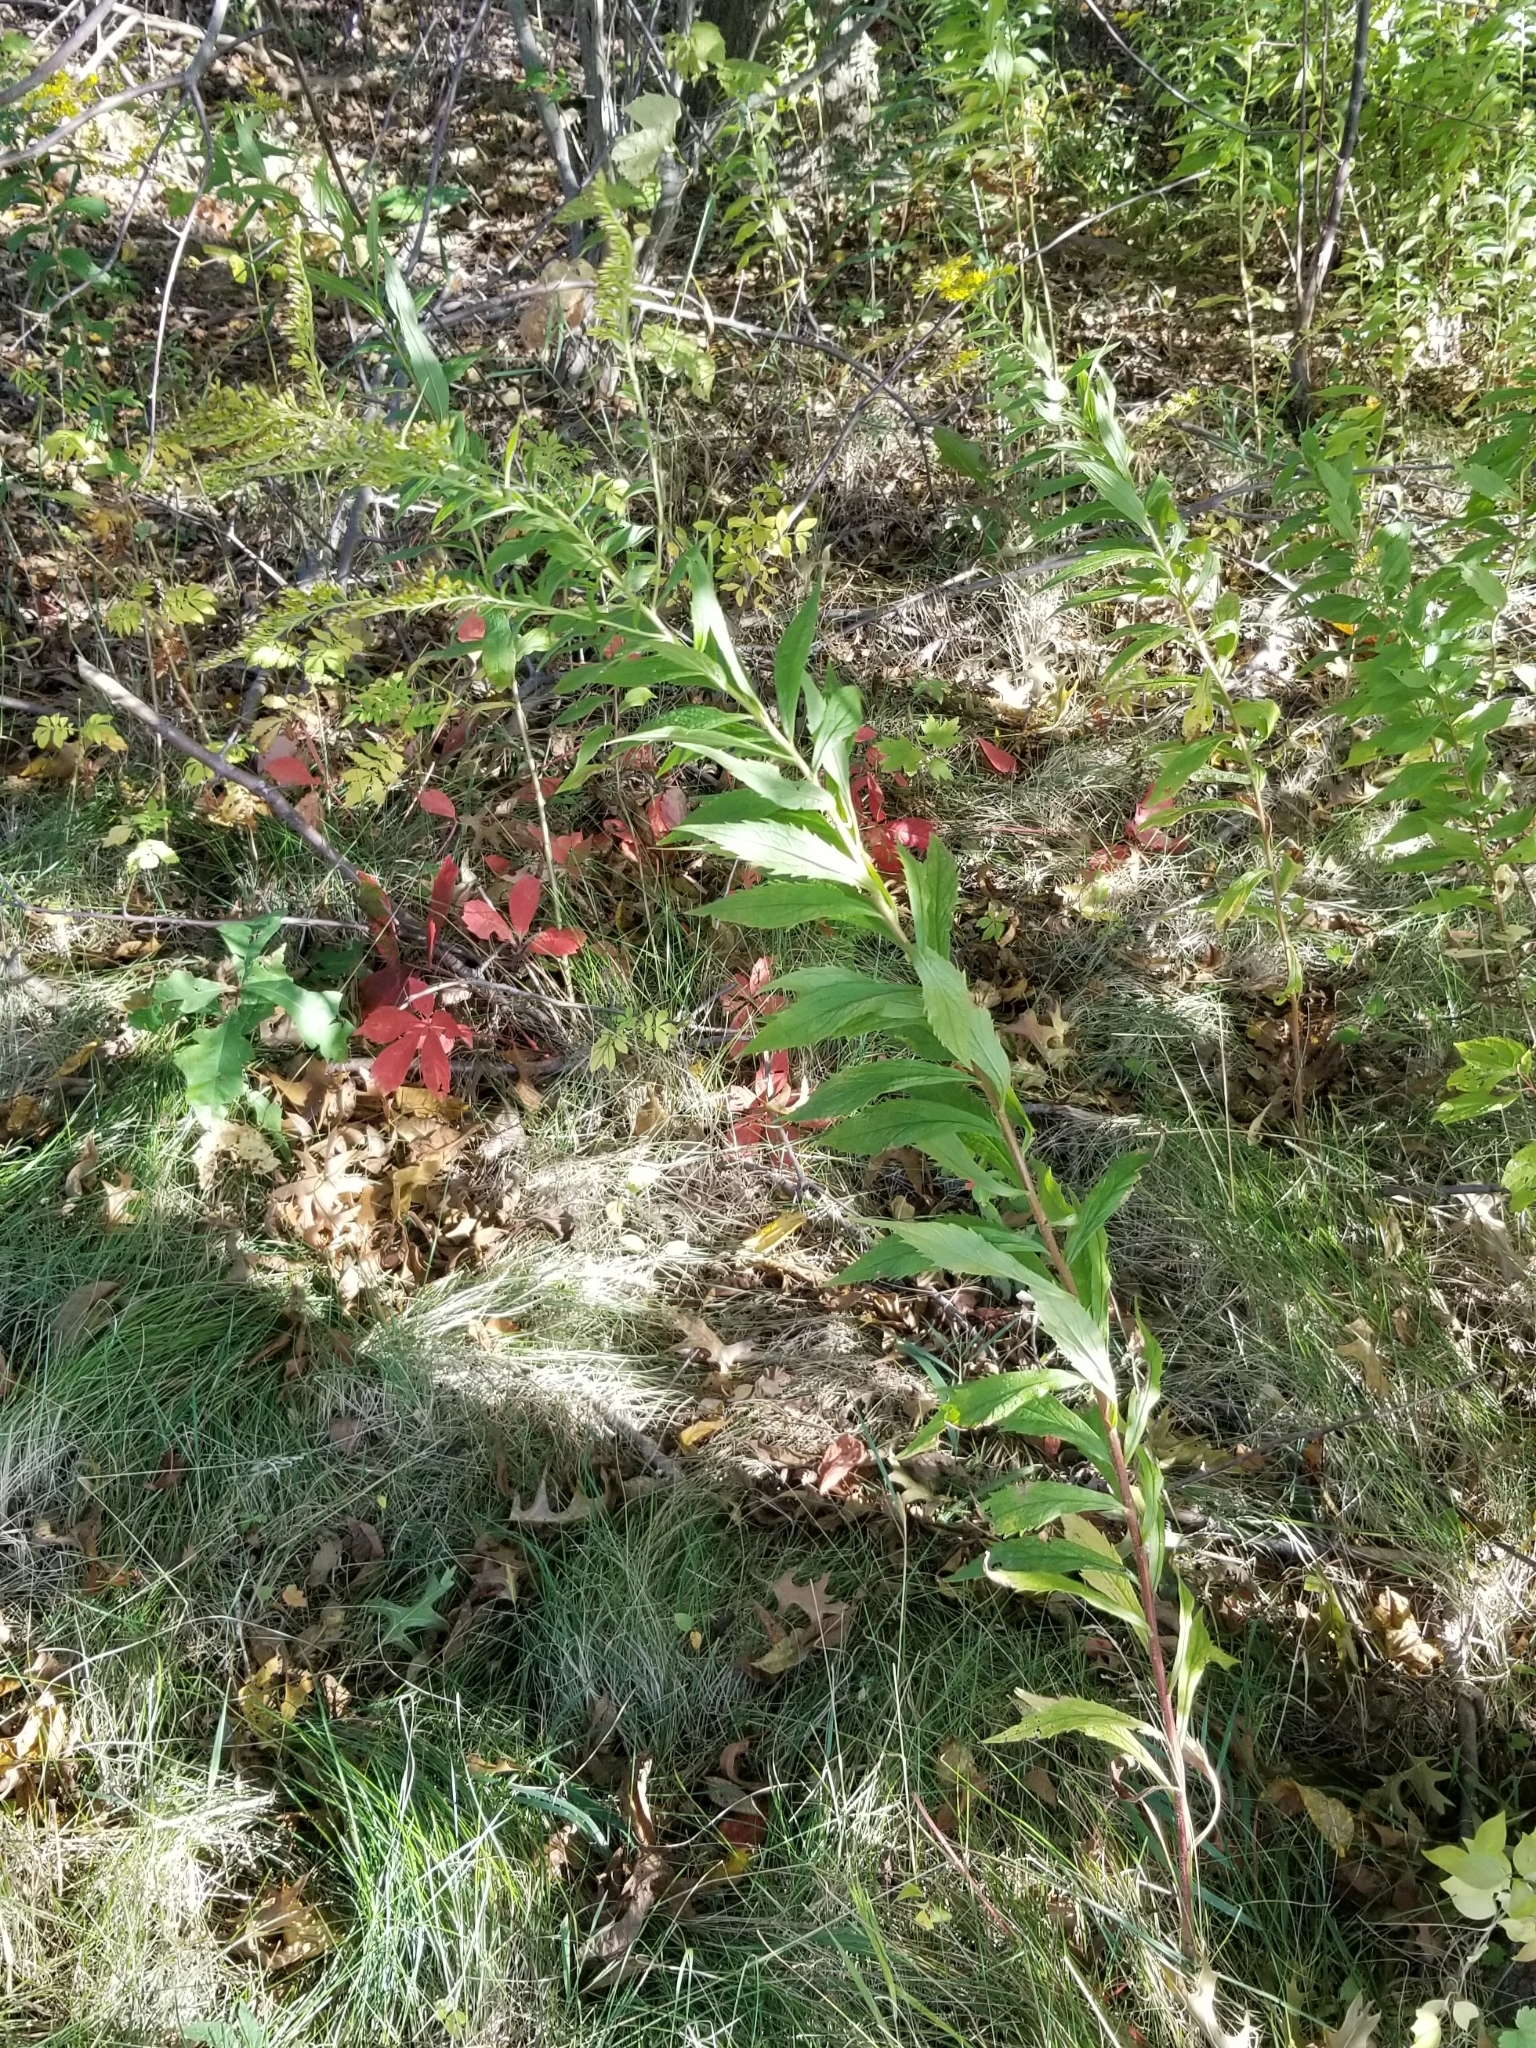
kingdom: Plantae
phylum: Tracheophyta
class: Magnoliopsida
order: Asterales
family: Asteraceae
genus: Solidago
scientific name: Solidago rugosa
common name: Rough-stemmed goldenrod
